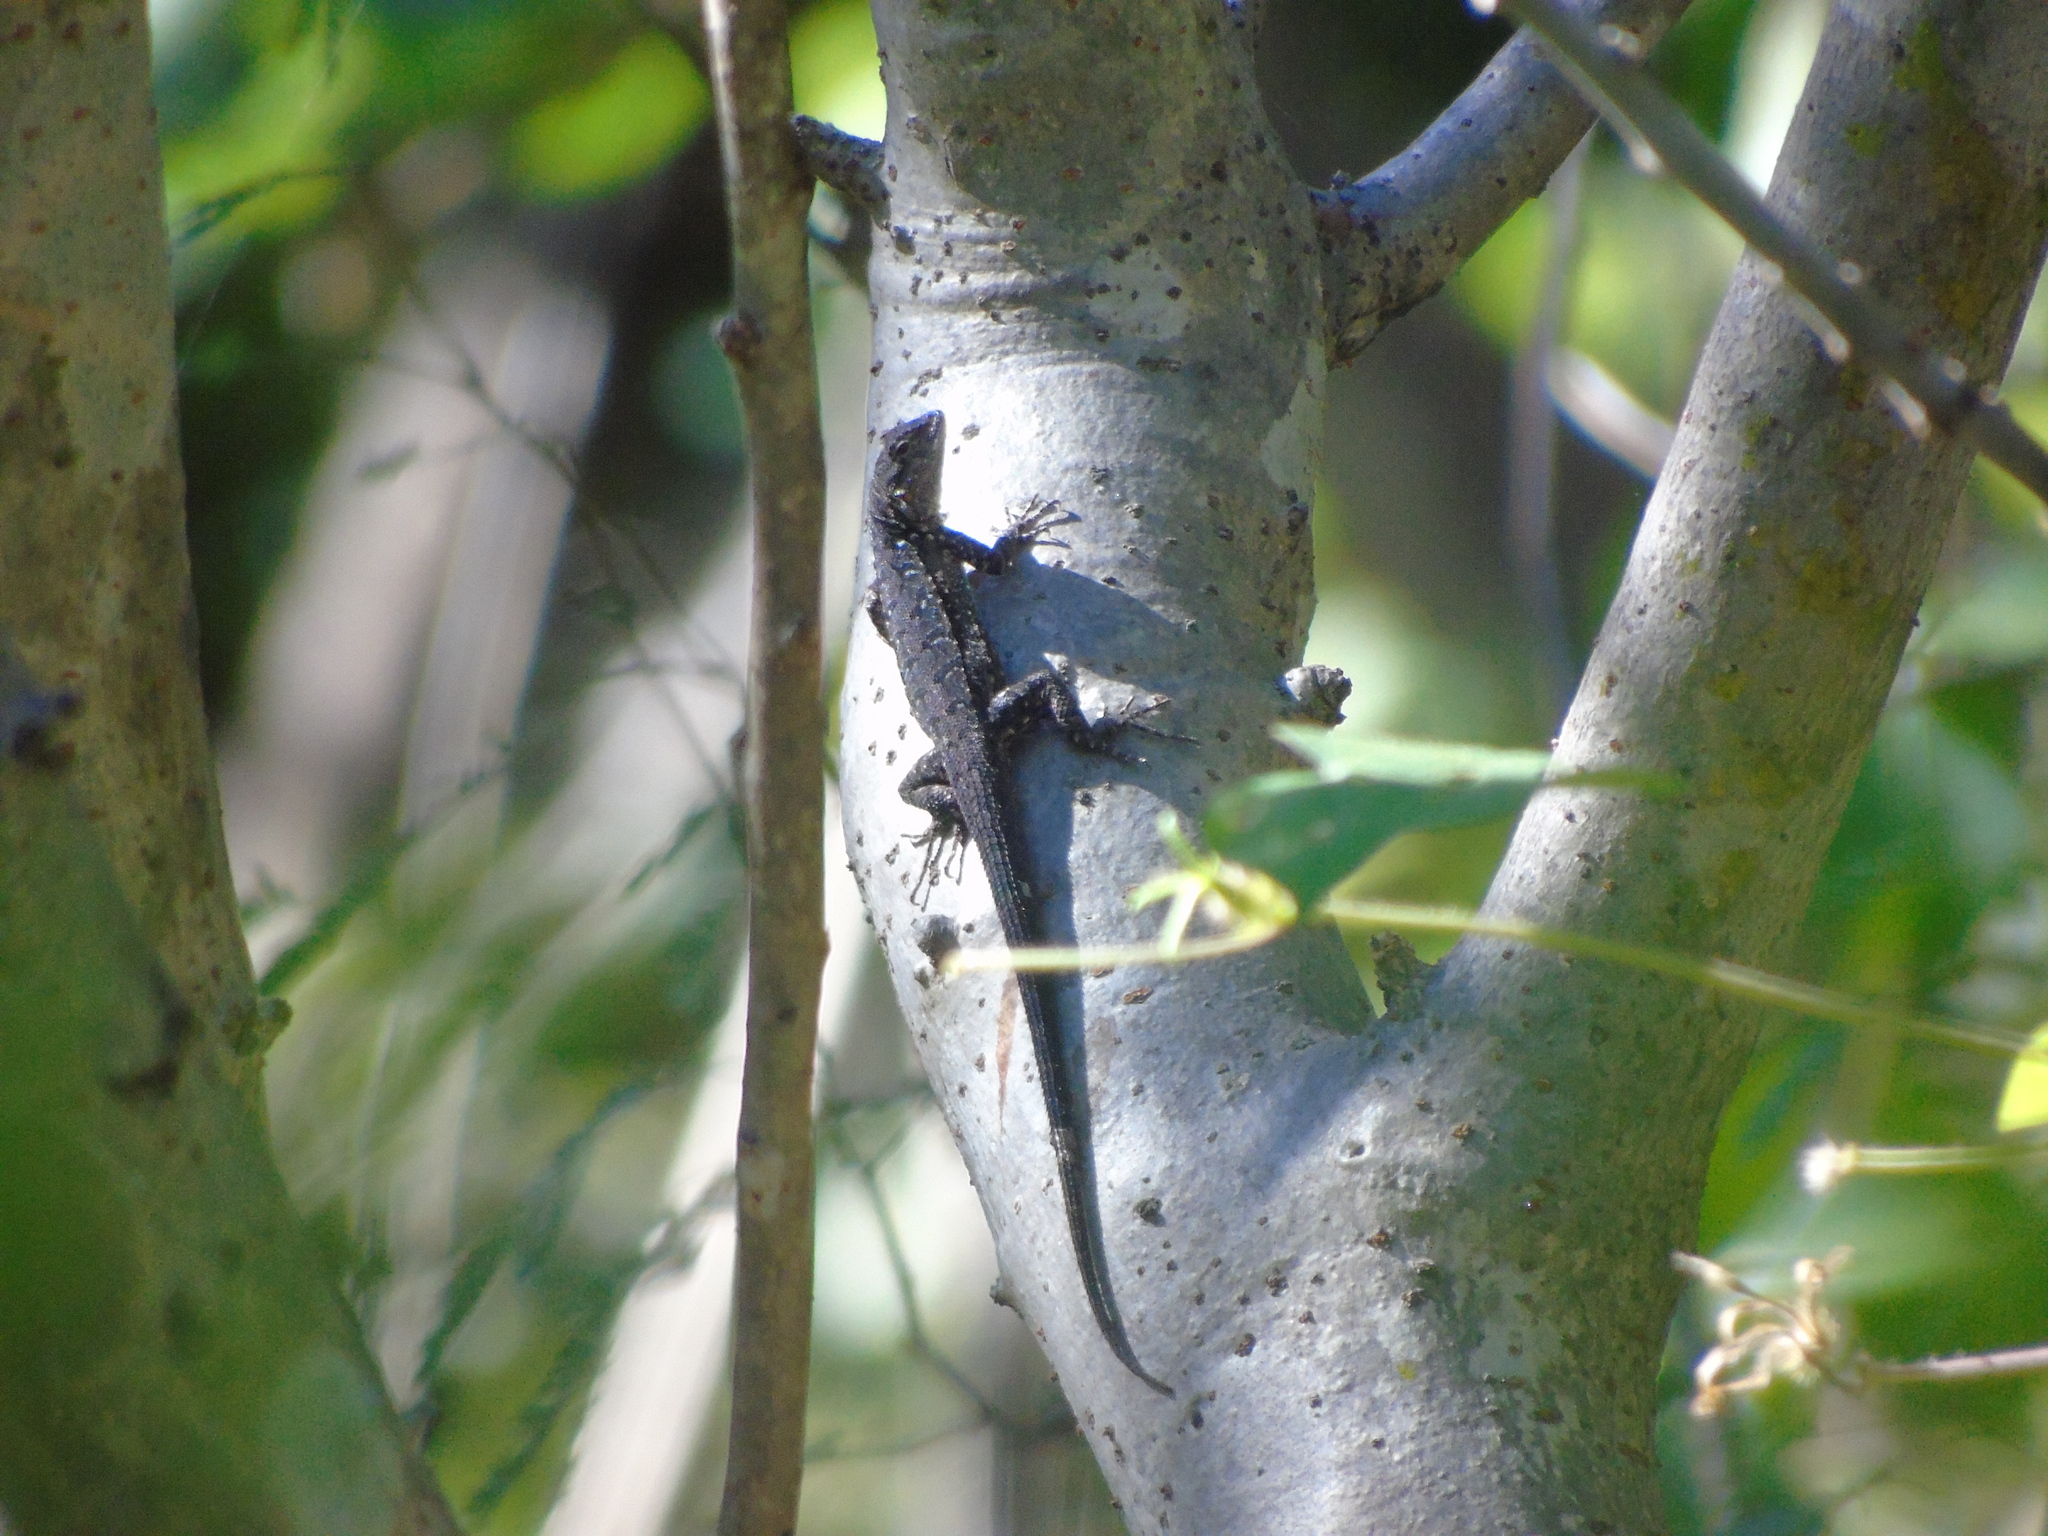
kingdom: Animalia
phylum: Chordata
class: Squamata
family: Phrynosomatidae
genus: Urosaurus
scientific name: Urosaurus nigricauda
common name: Baja california brush lizard
